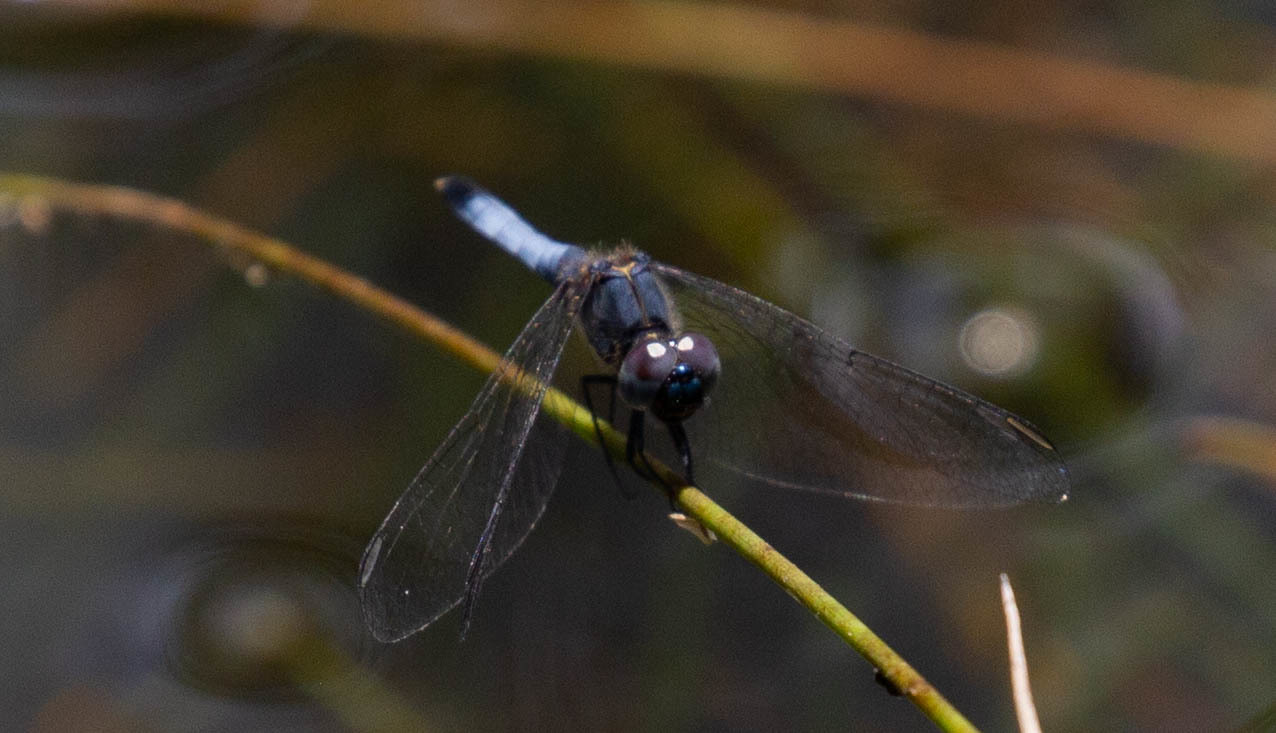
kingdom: Animalia
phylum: Arthropoda
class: Insecta
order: Odonata
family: Libellulidae
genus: Erythrodiplax
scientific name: Erythrodiplax minuscula
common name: Little blue dragonlet
